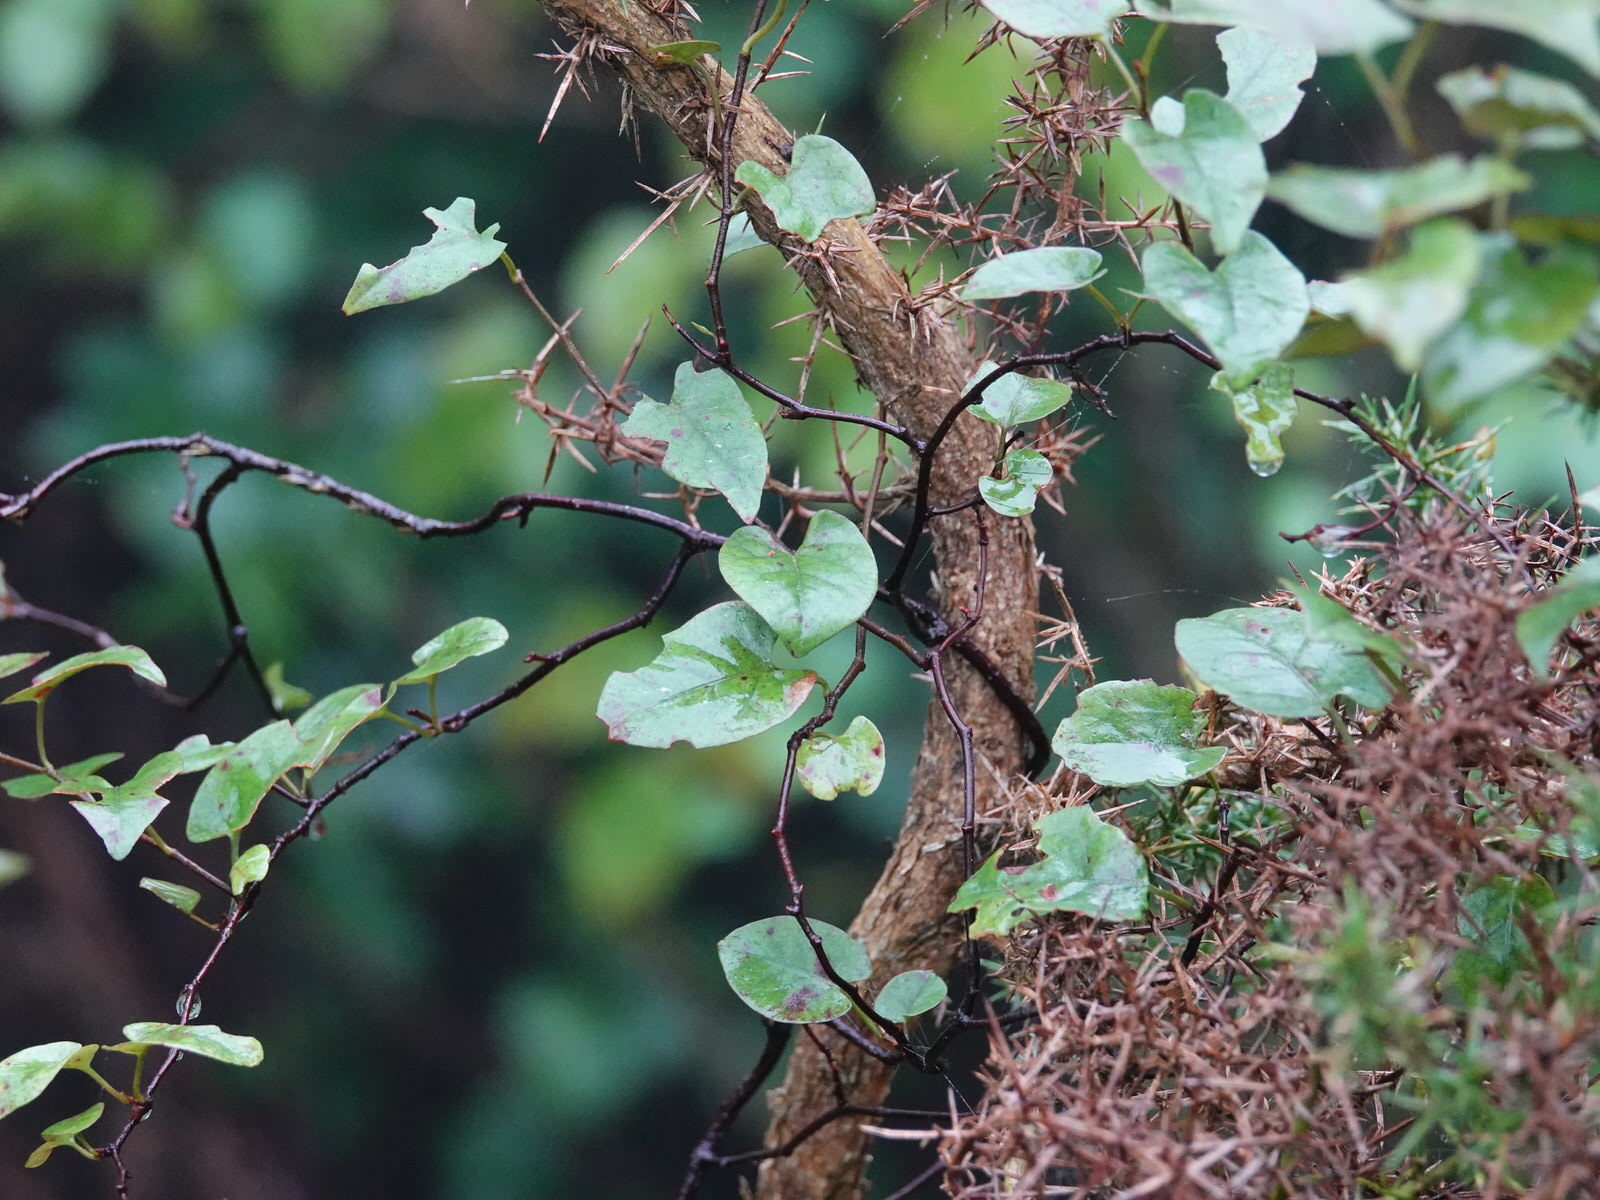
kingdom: Plantae
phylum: Tracheophyta
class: Magnoliopsida
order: Caryophyllales
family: Polygonaceae
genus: Muehlenbeckia
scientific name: Muehlenbeckia australis
